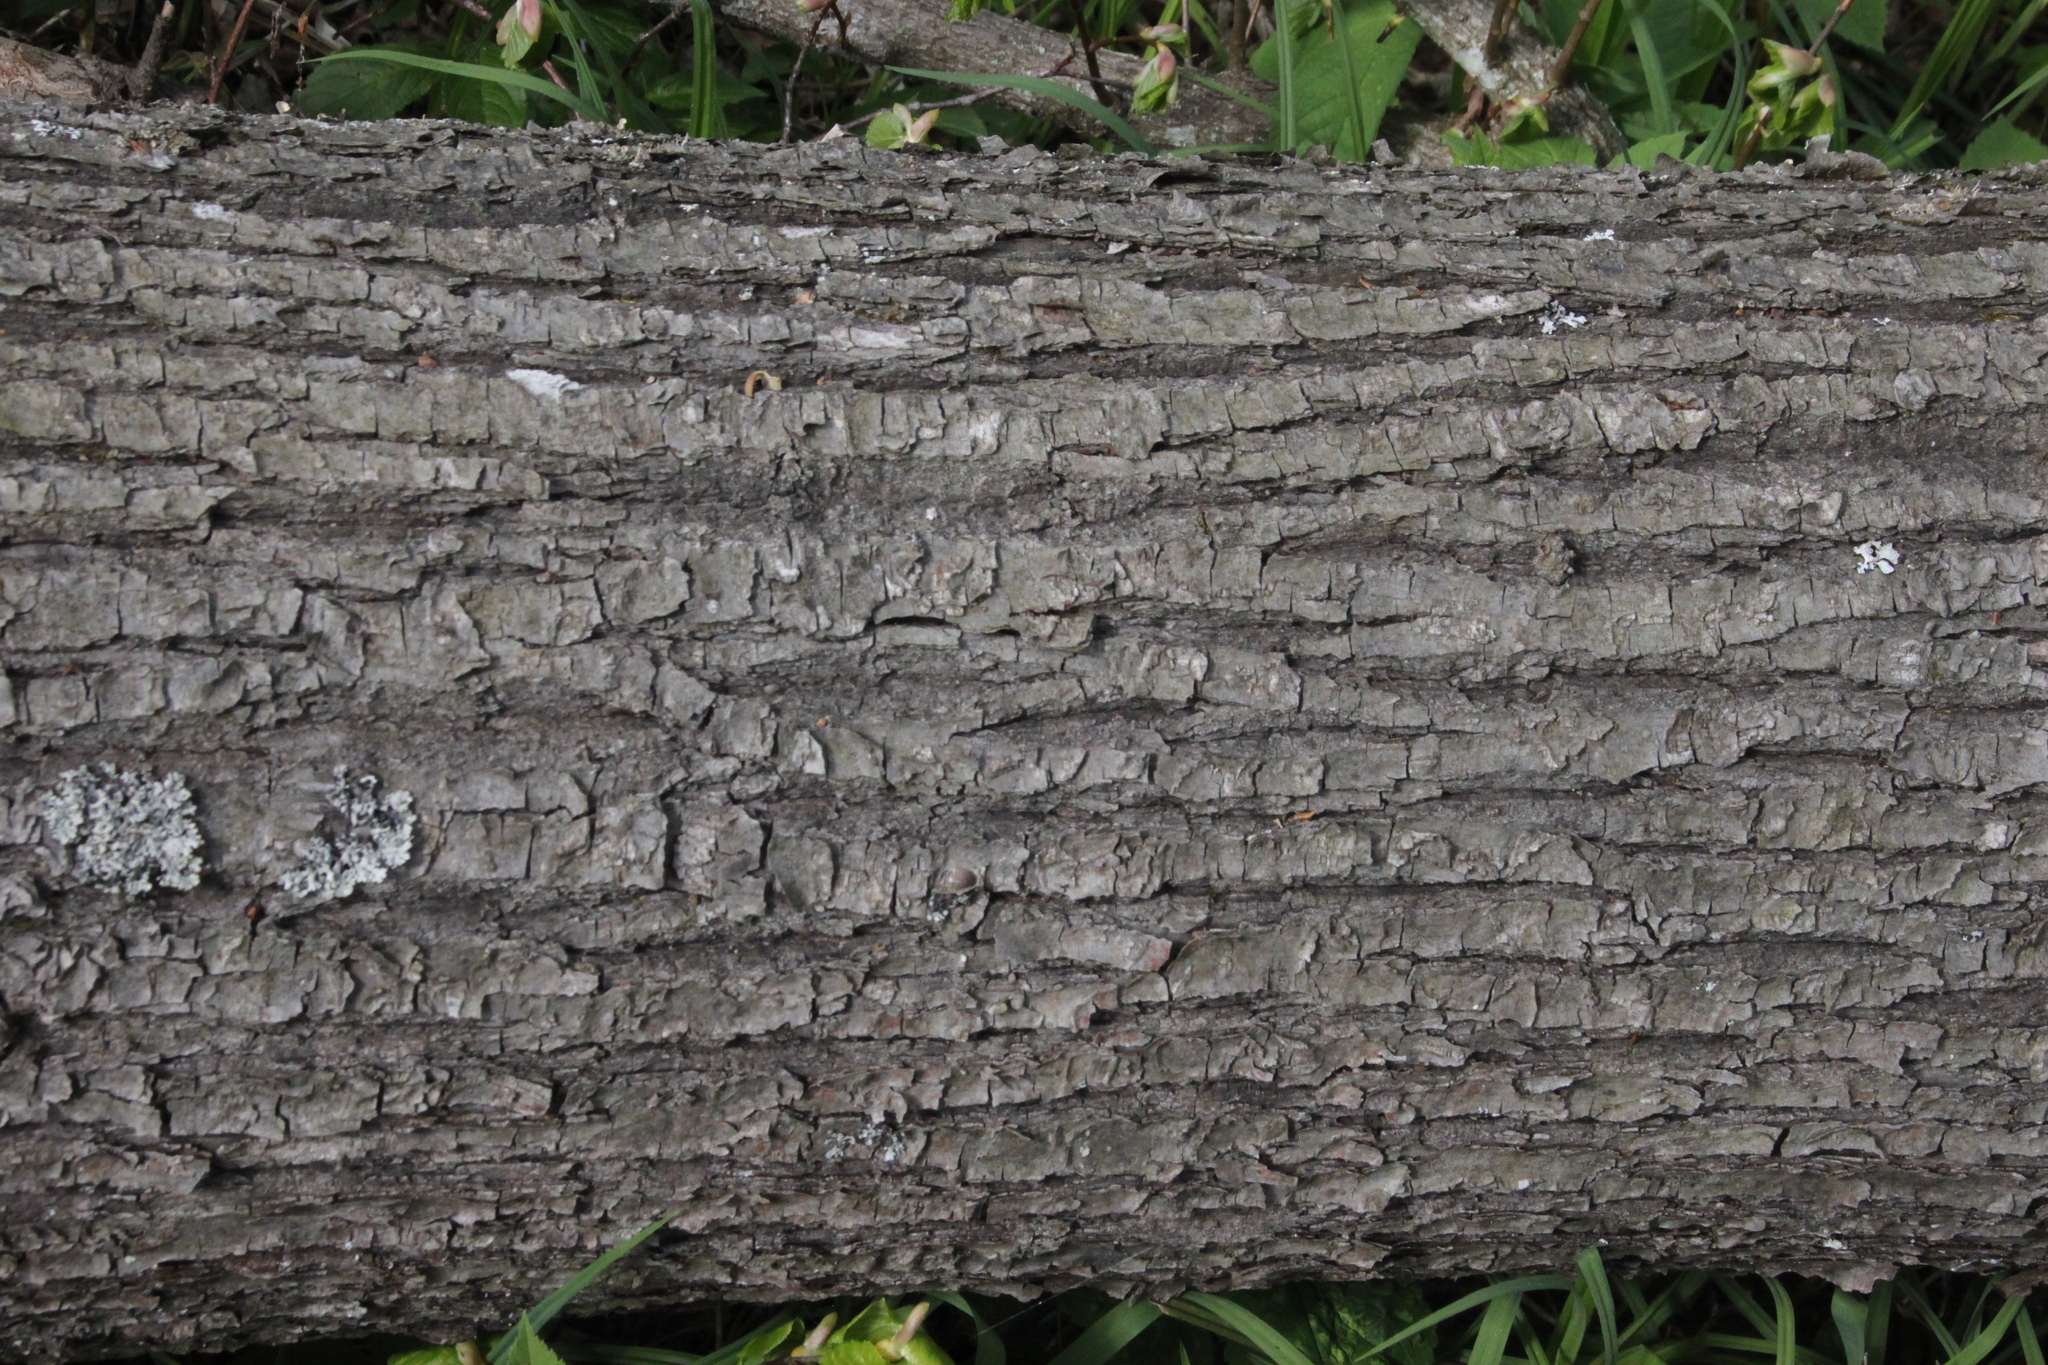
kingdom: Plantae
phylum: Tracheophyta
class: Magnoliopsida
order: Malvales
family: Malvaceae
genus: Tilia
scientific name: Tilia cordata
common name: Small-leaved lime
